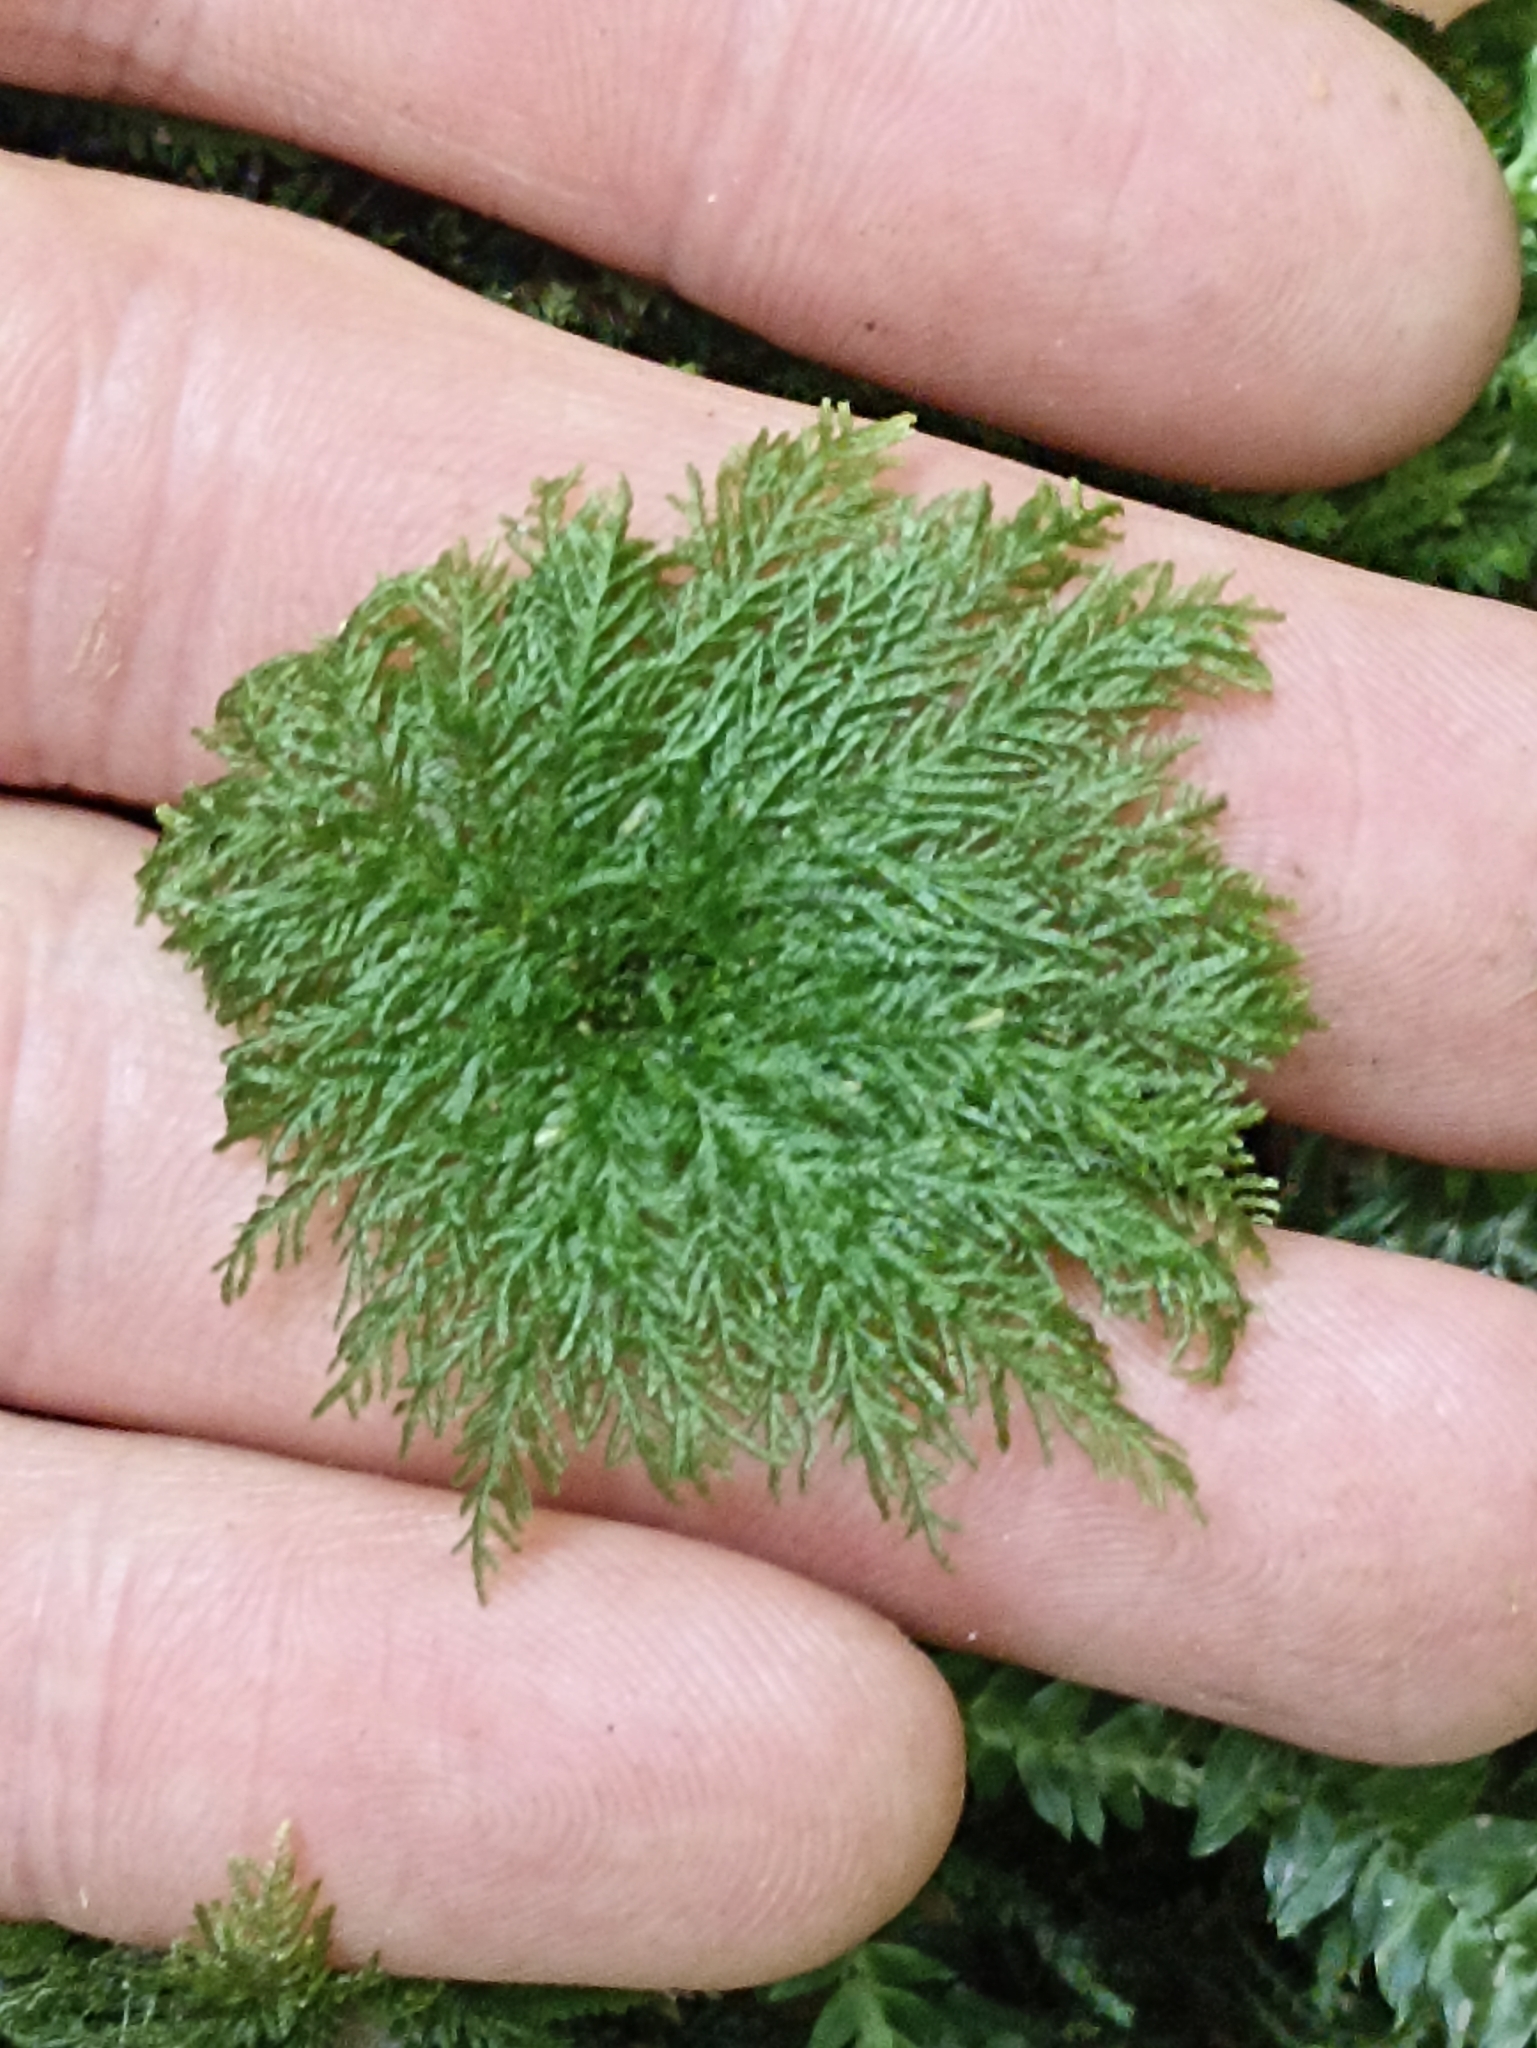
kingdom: Plantae
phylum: Bryophyta
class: Bryopsida
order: Hypopterygiales
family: Hypopterygiaceae
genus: Dendrohypopterygium
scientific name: Dendrohypopterygium filiculiforme
